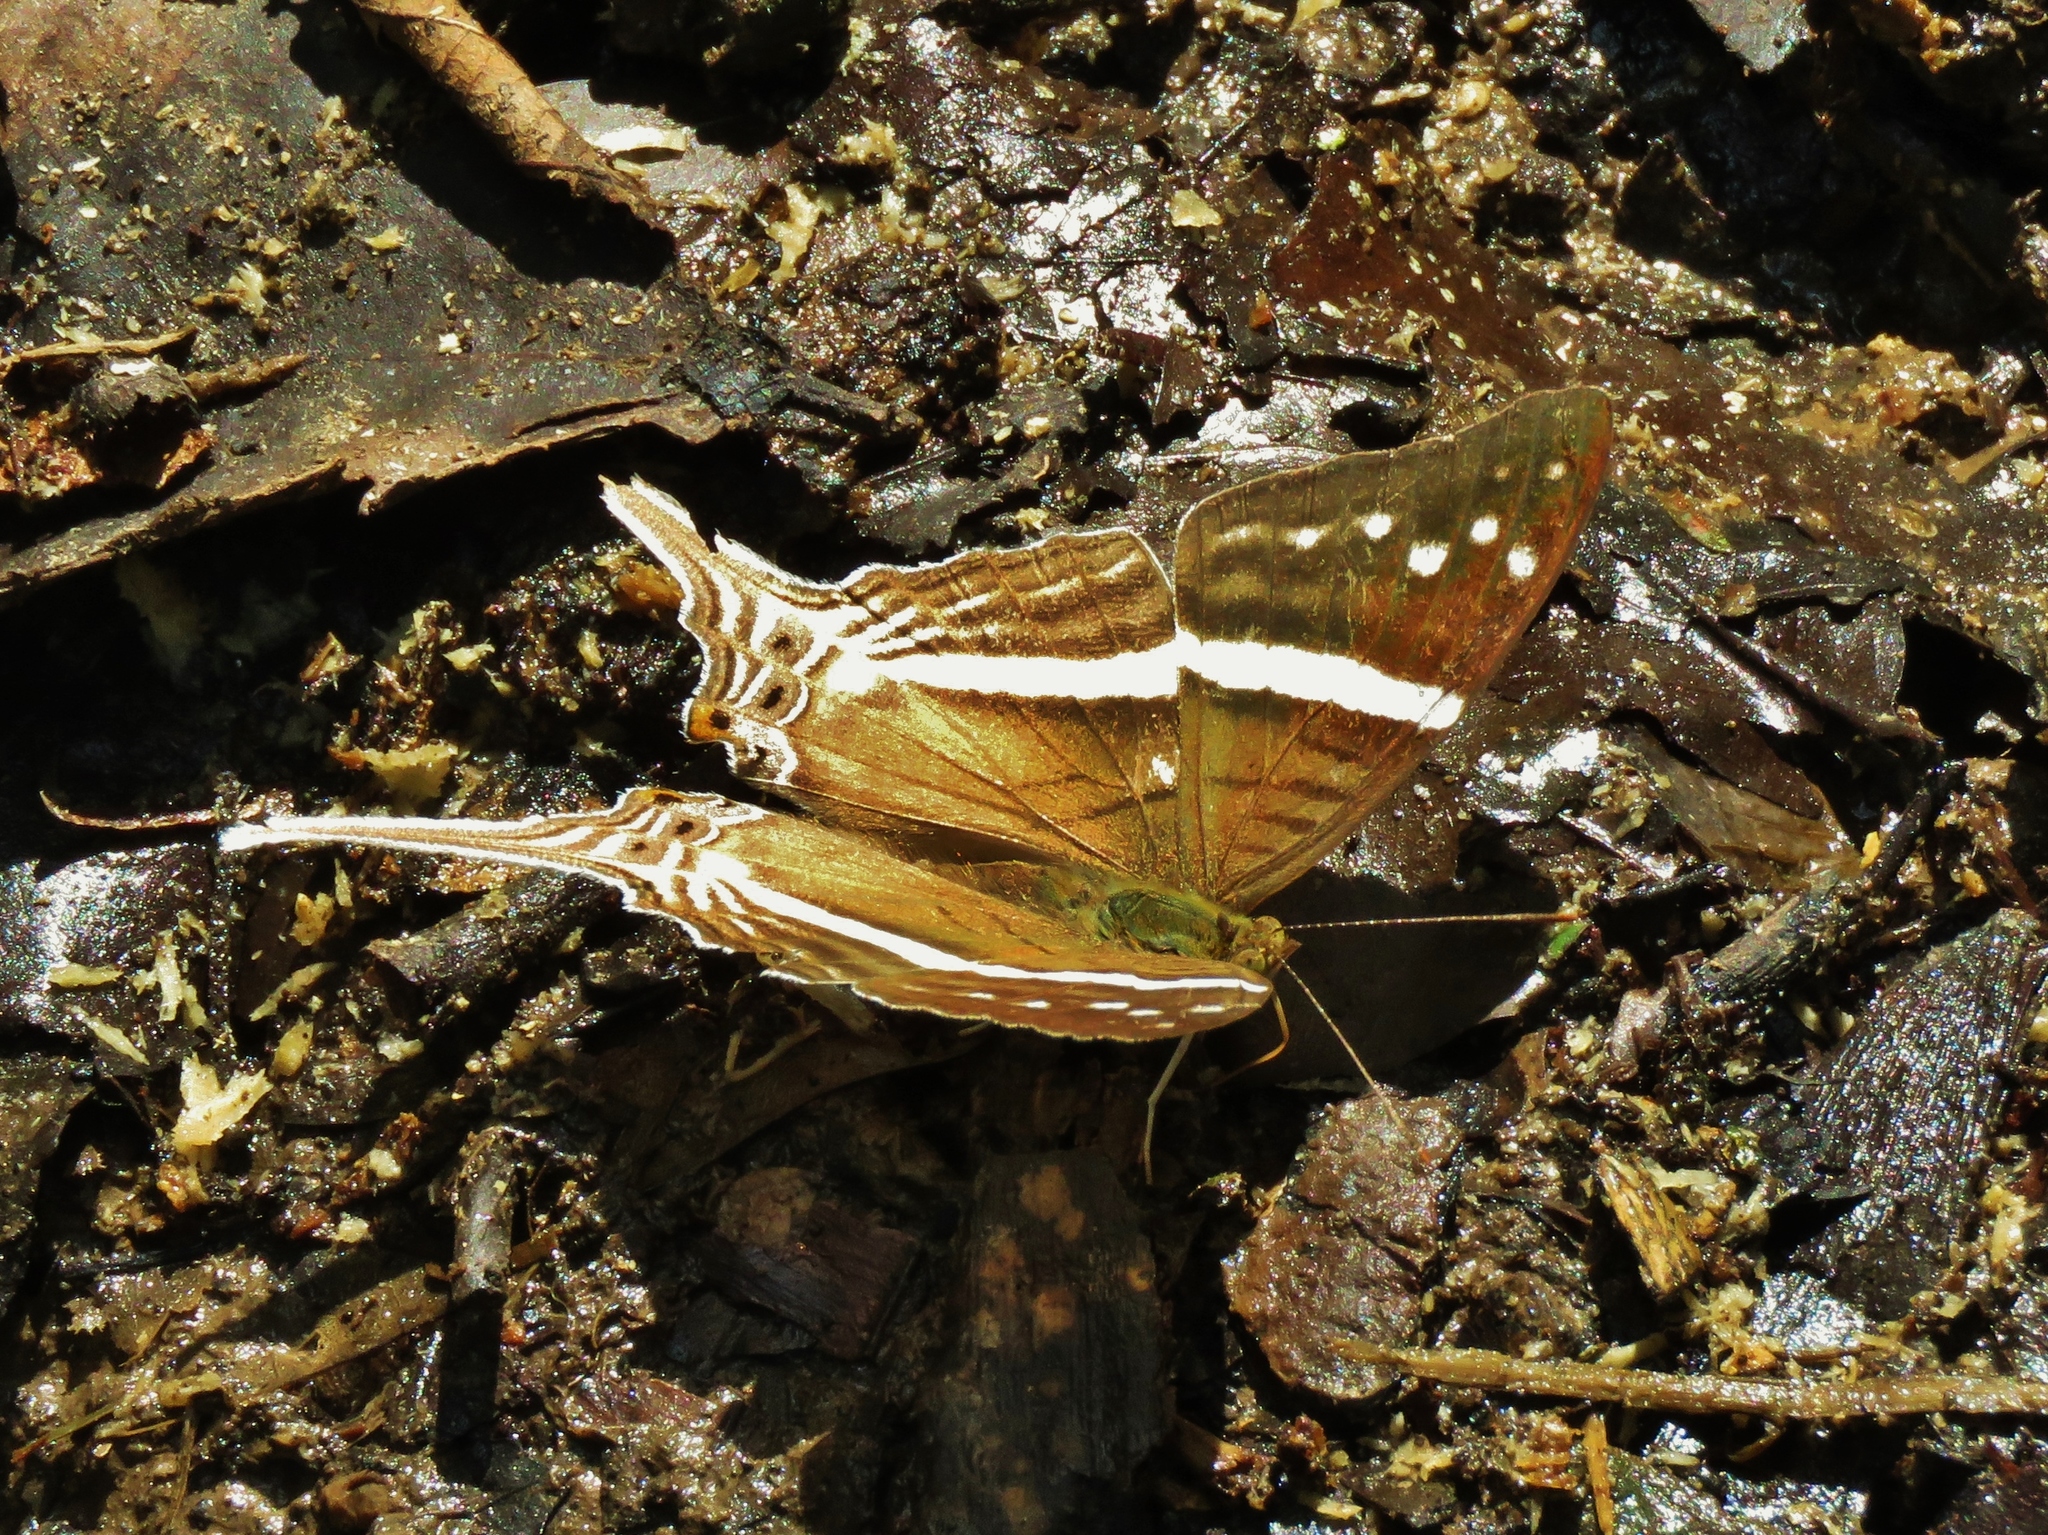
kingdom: Animalia
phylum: Arthropoda
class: Insecta
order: Lepidoptera
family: Nymphalidae
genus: Marpesia
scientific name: Marpesia crethon
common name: Crethon daggerwing
